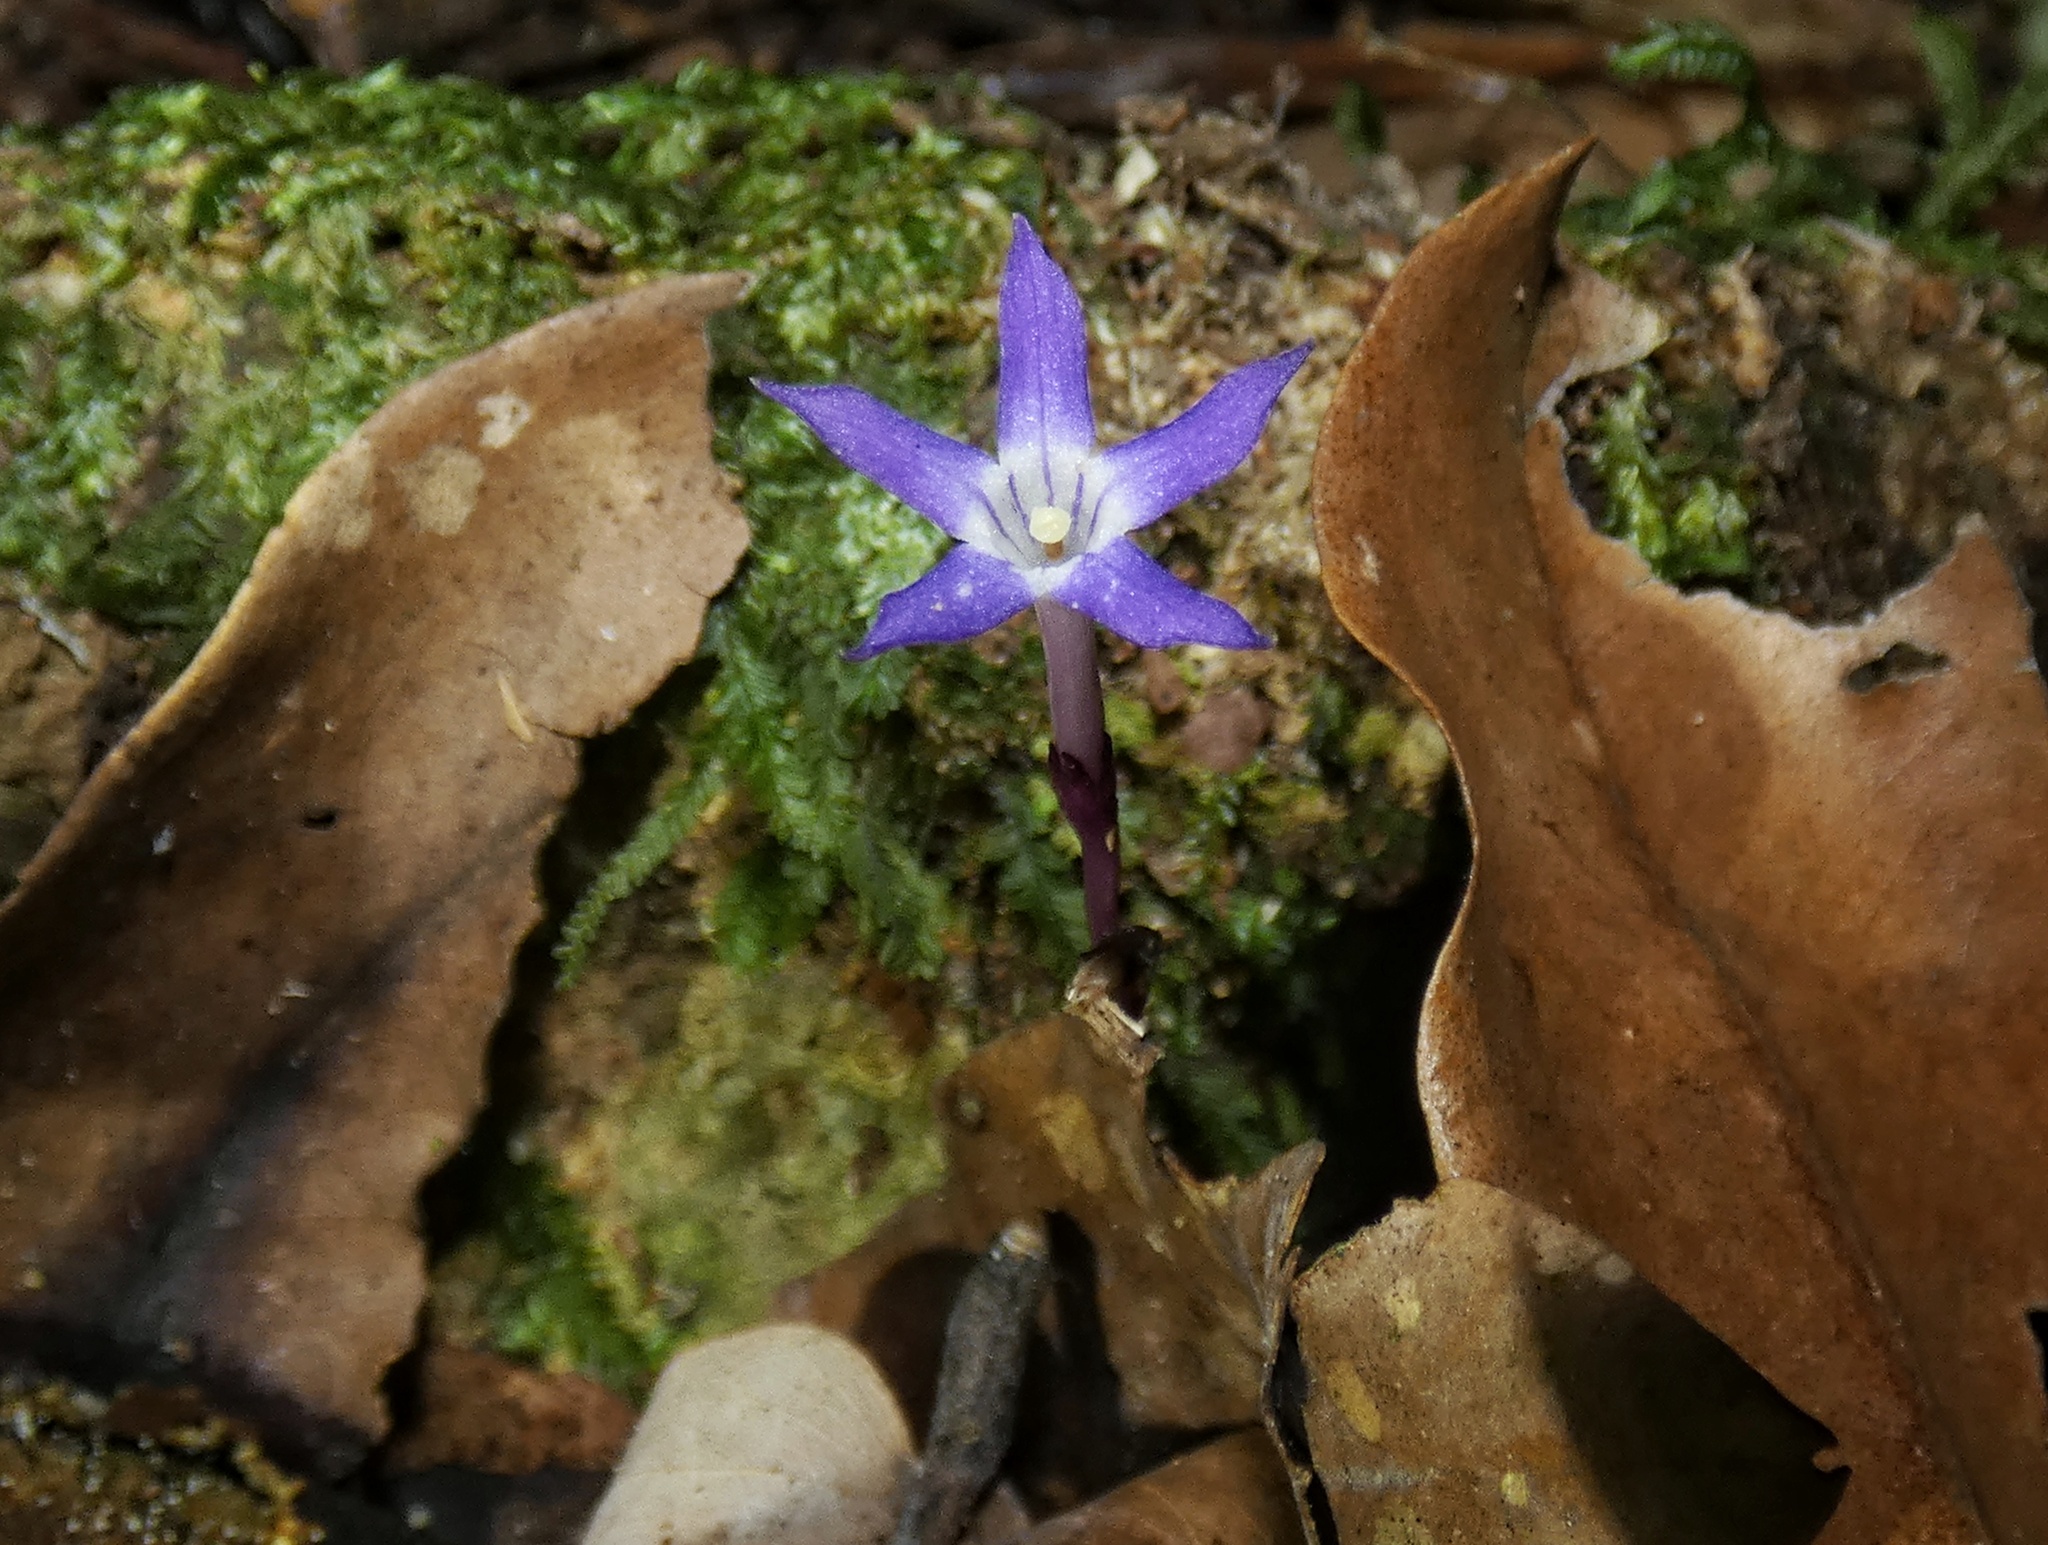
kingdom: Plantae
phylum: Tracheophyta
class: Magnoliopsida
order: Gentianales
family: Gentianaceae
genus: Voyria
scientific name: Voyria pittieri
